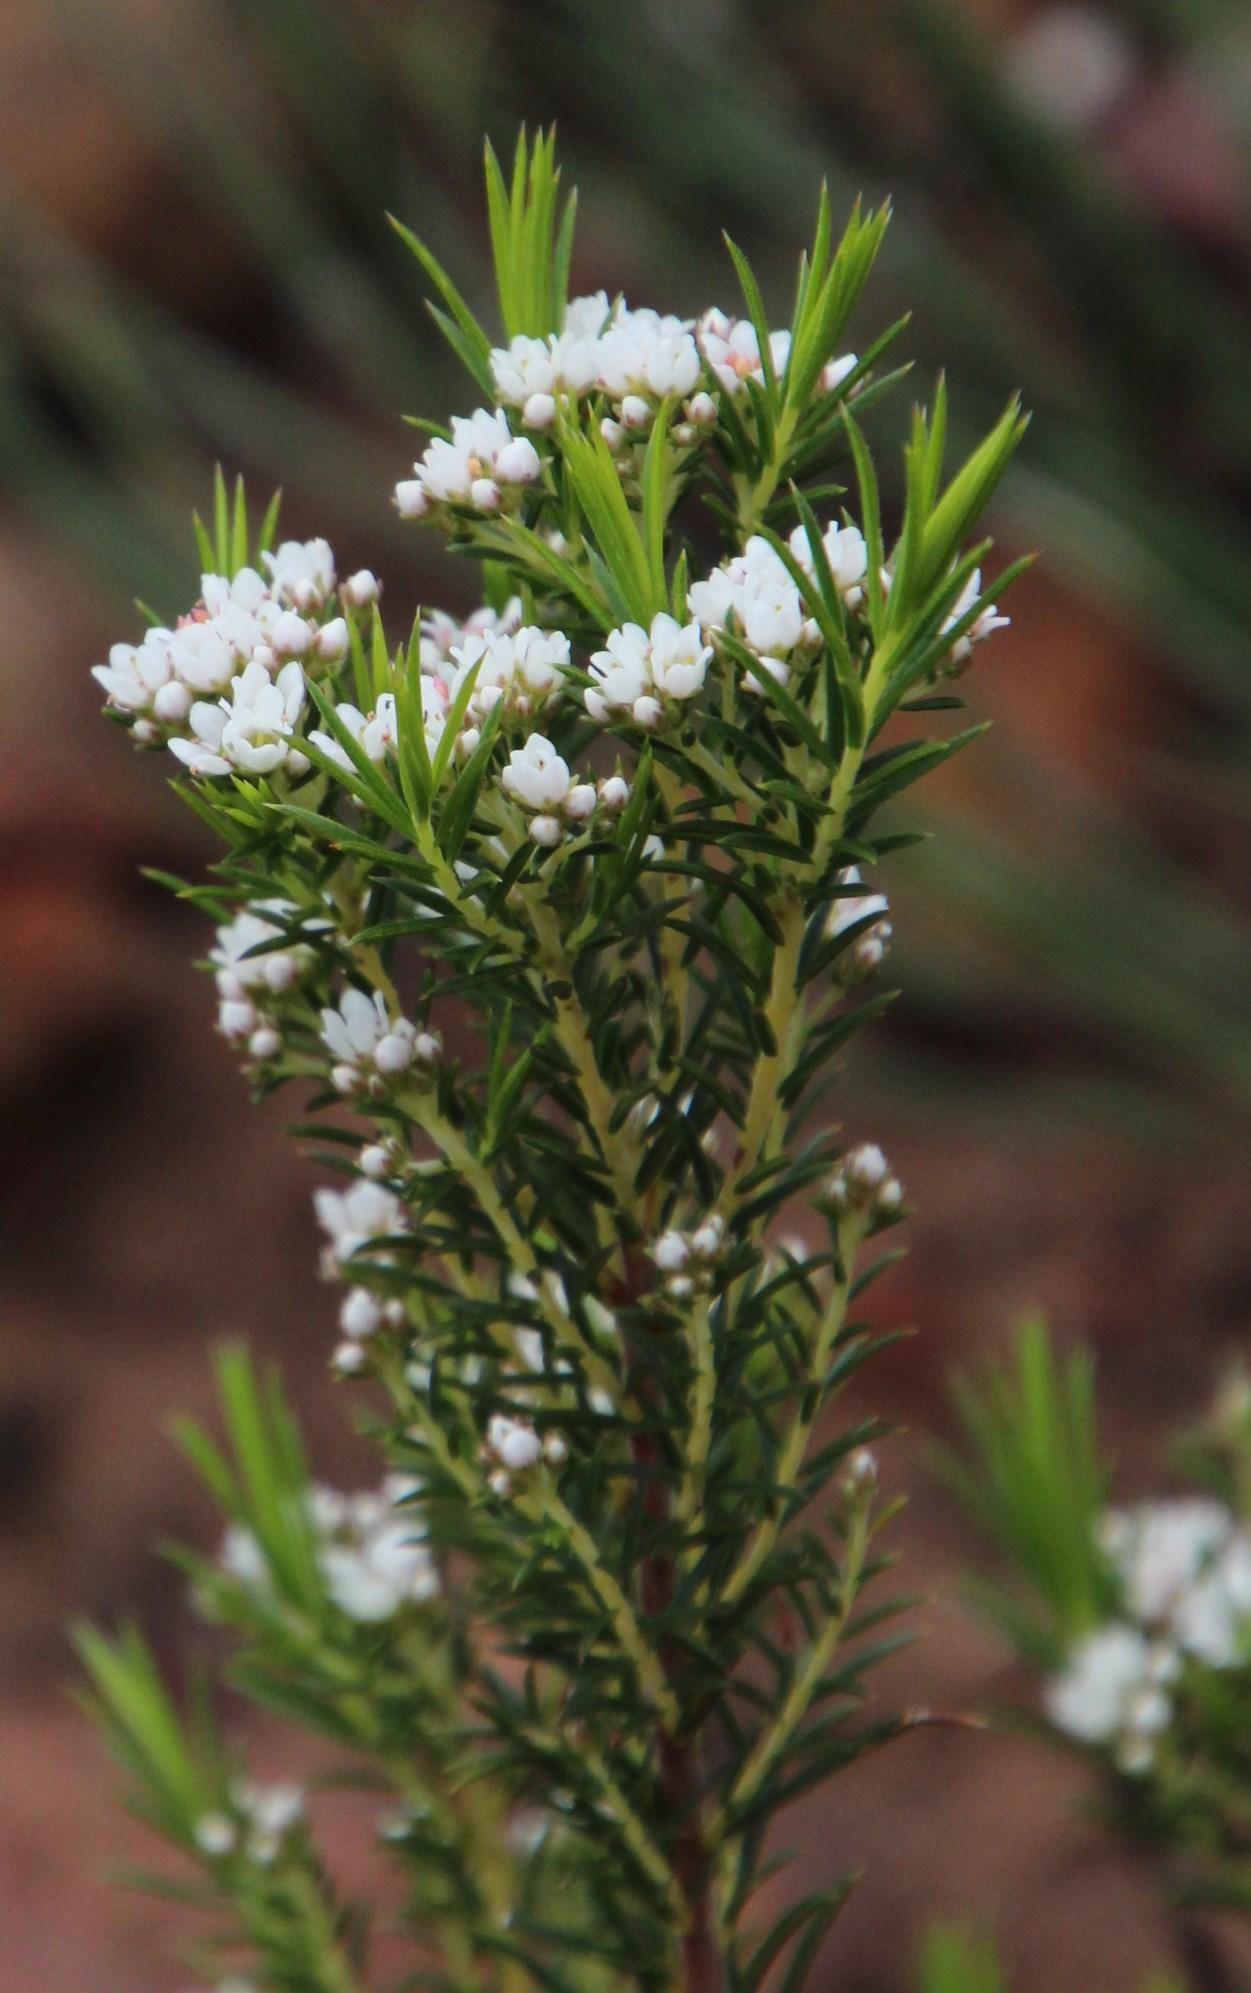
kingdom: Plantae
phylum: Tracheophyta
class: Magnoliopsida
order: Sapindales
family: Rutaceae
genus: Diosma
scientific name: Diosma hirsuta
